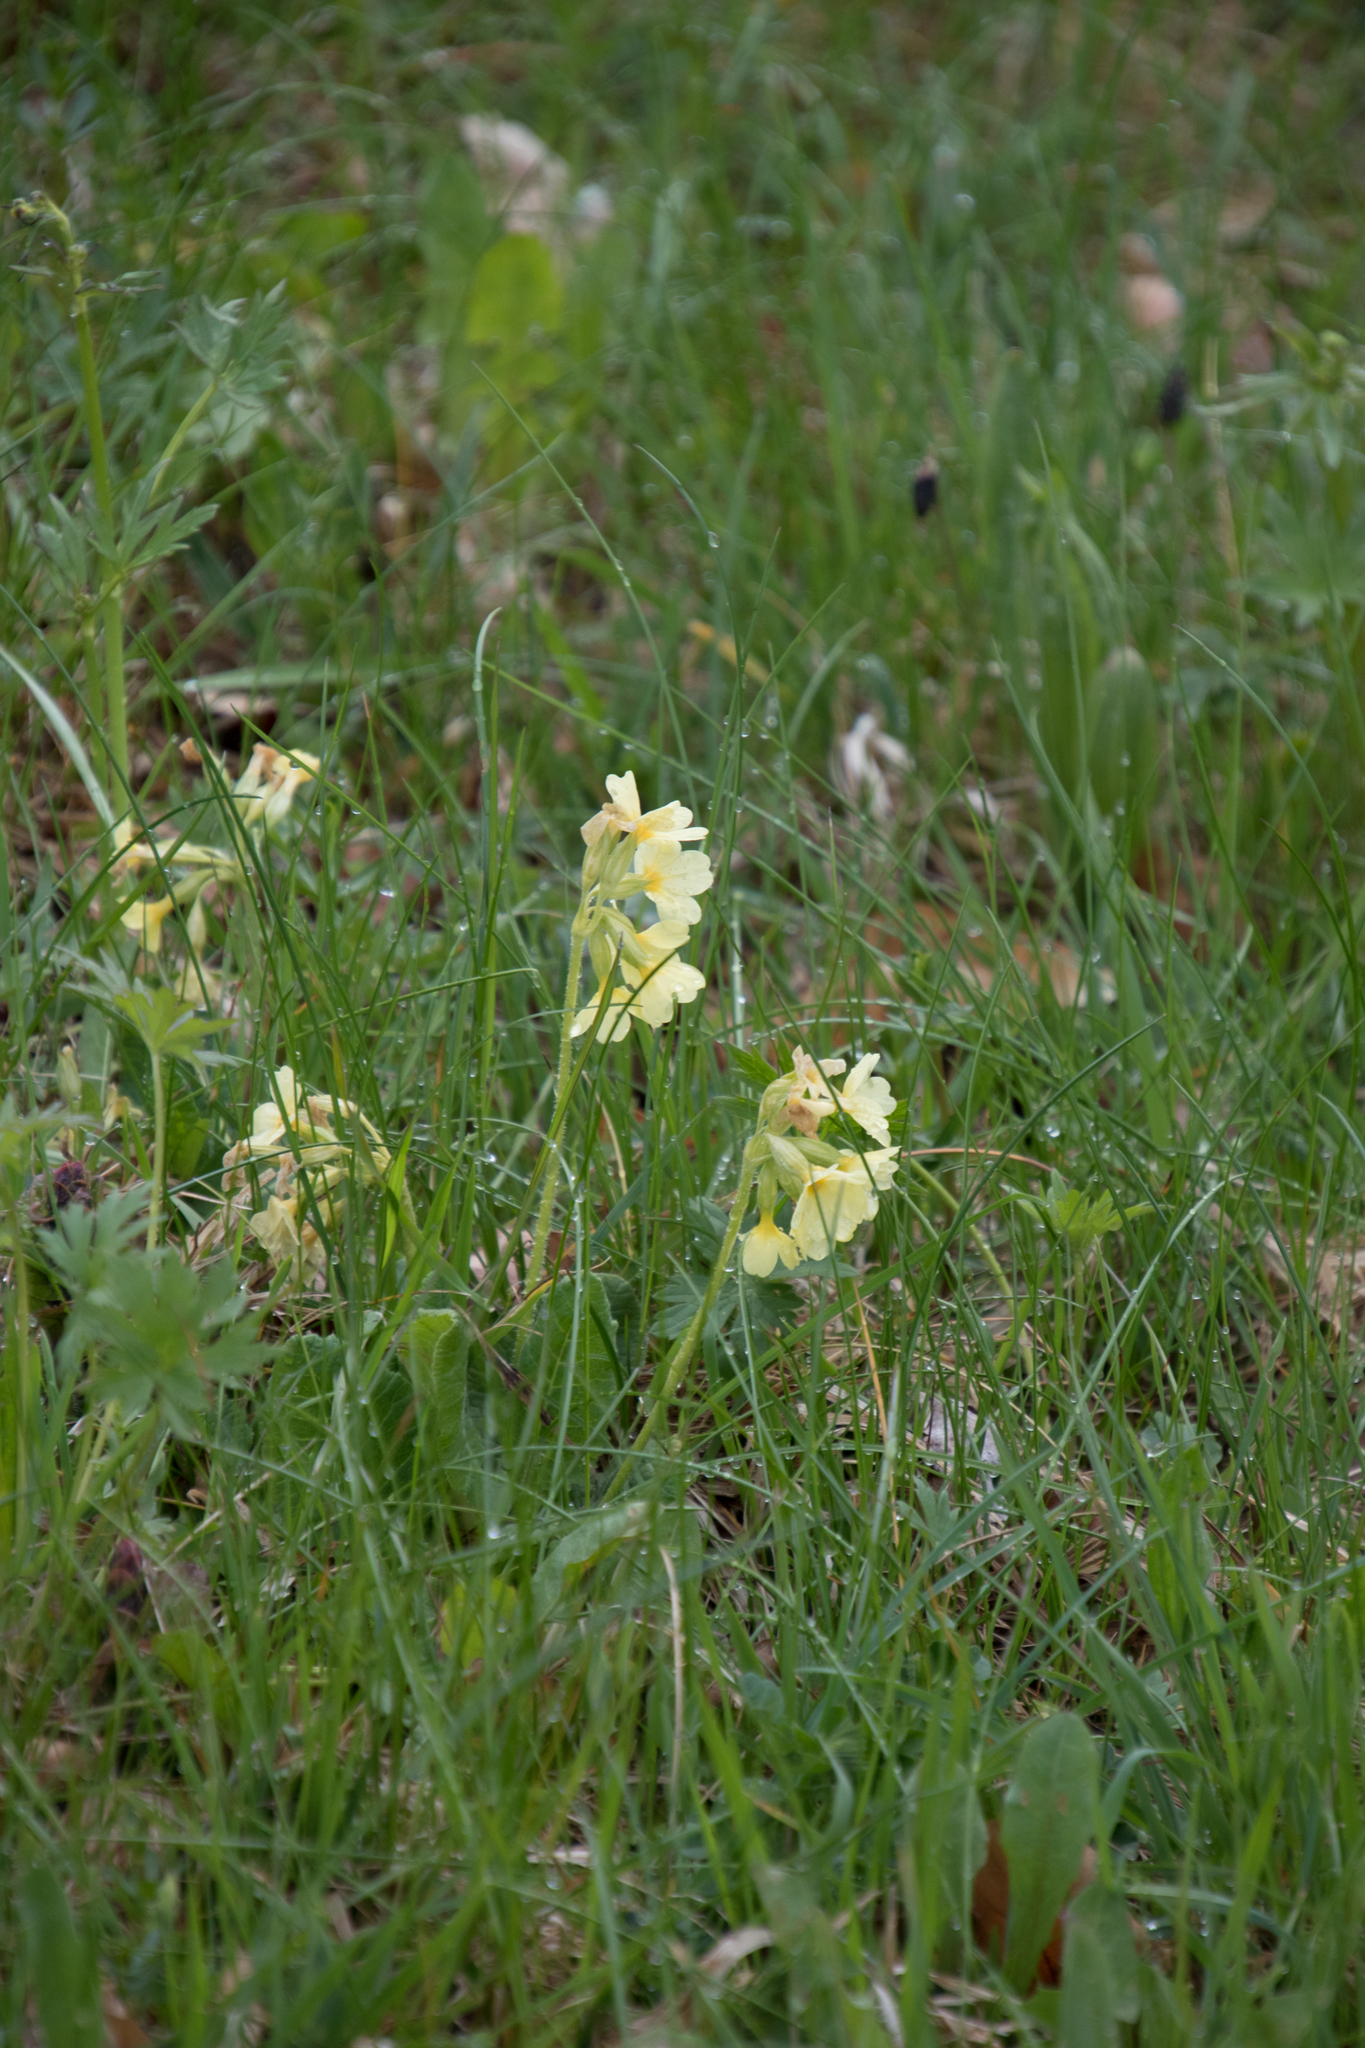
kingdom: Plantae
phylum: Tracheophyta
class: Magnoliopsida
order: Ericales
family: Primulaceae
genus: Primula
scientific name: Primula elatior
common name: Oxlip
